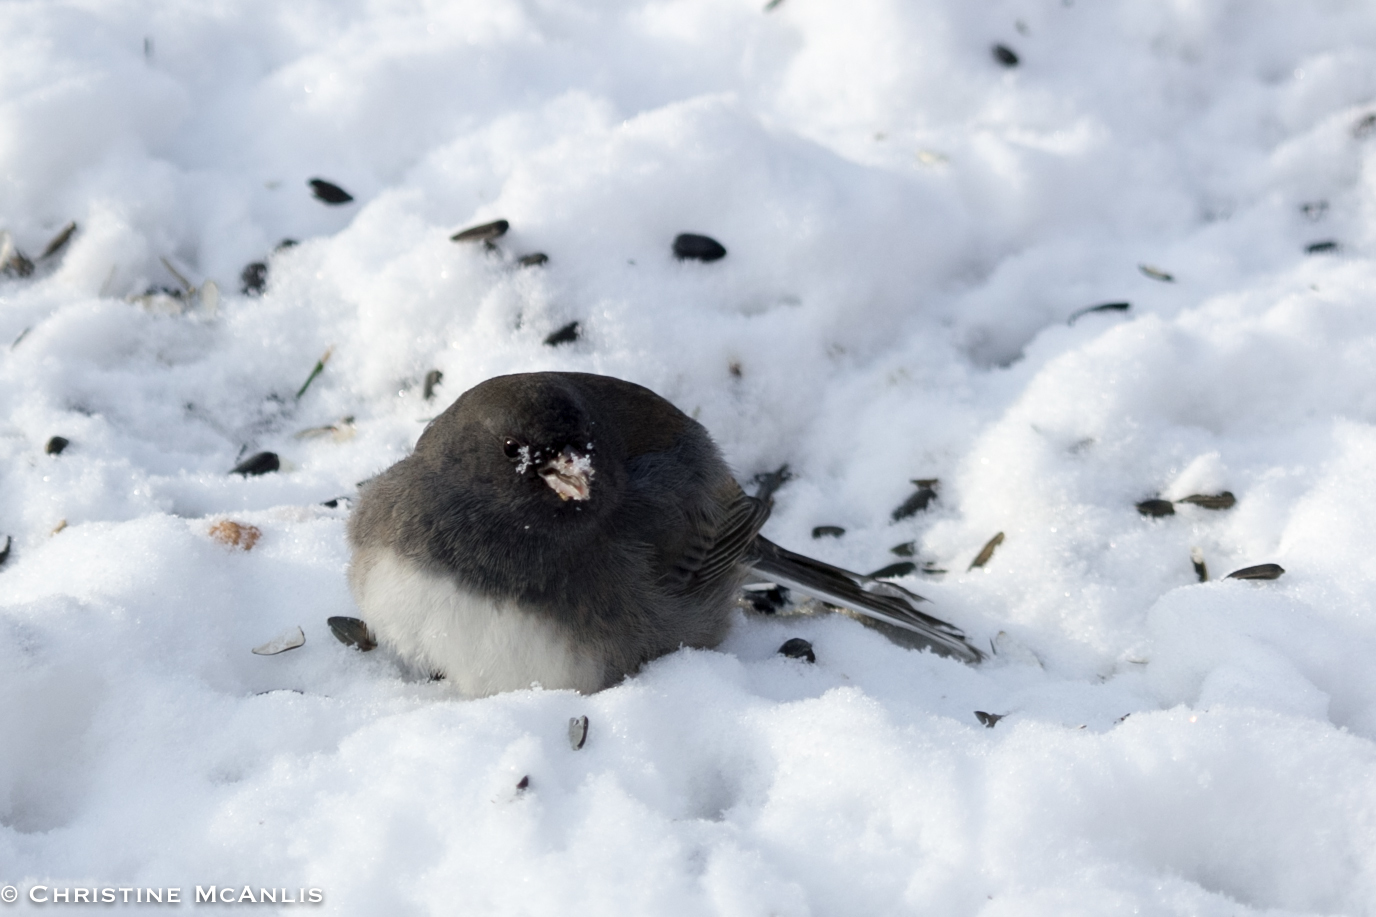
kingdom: Animalia
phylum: Chordata
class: Aves
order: Passeriformes
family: Passerellidae
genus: Junco
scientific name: Junco hyemalis
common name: Dark-eyed junco
